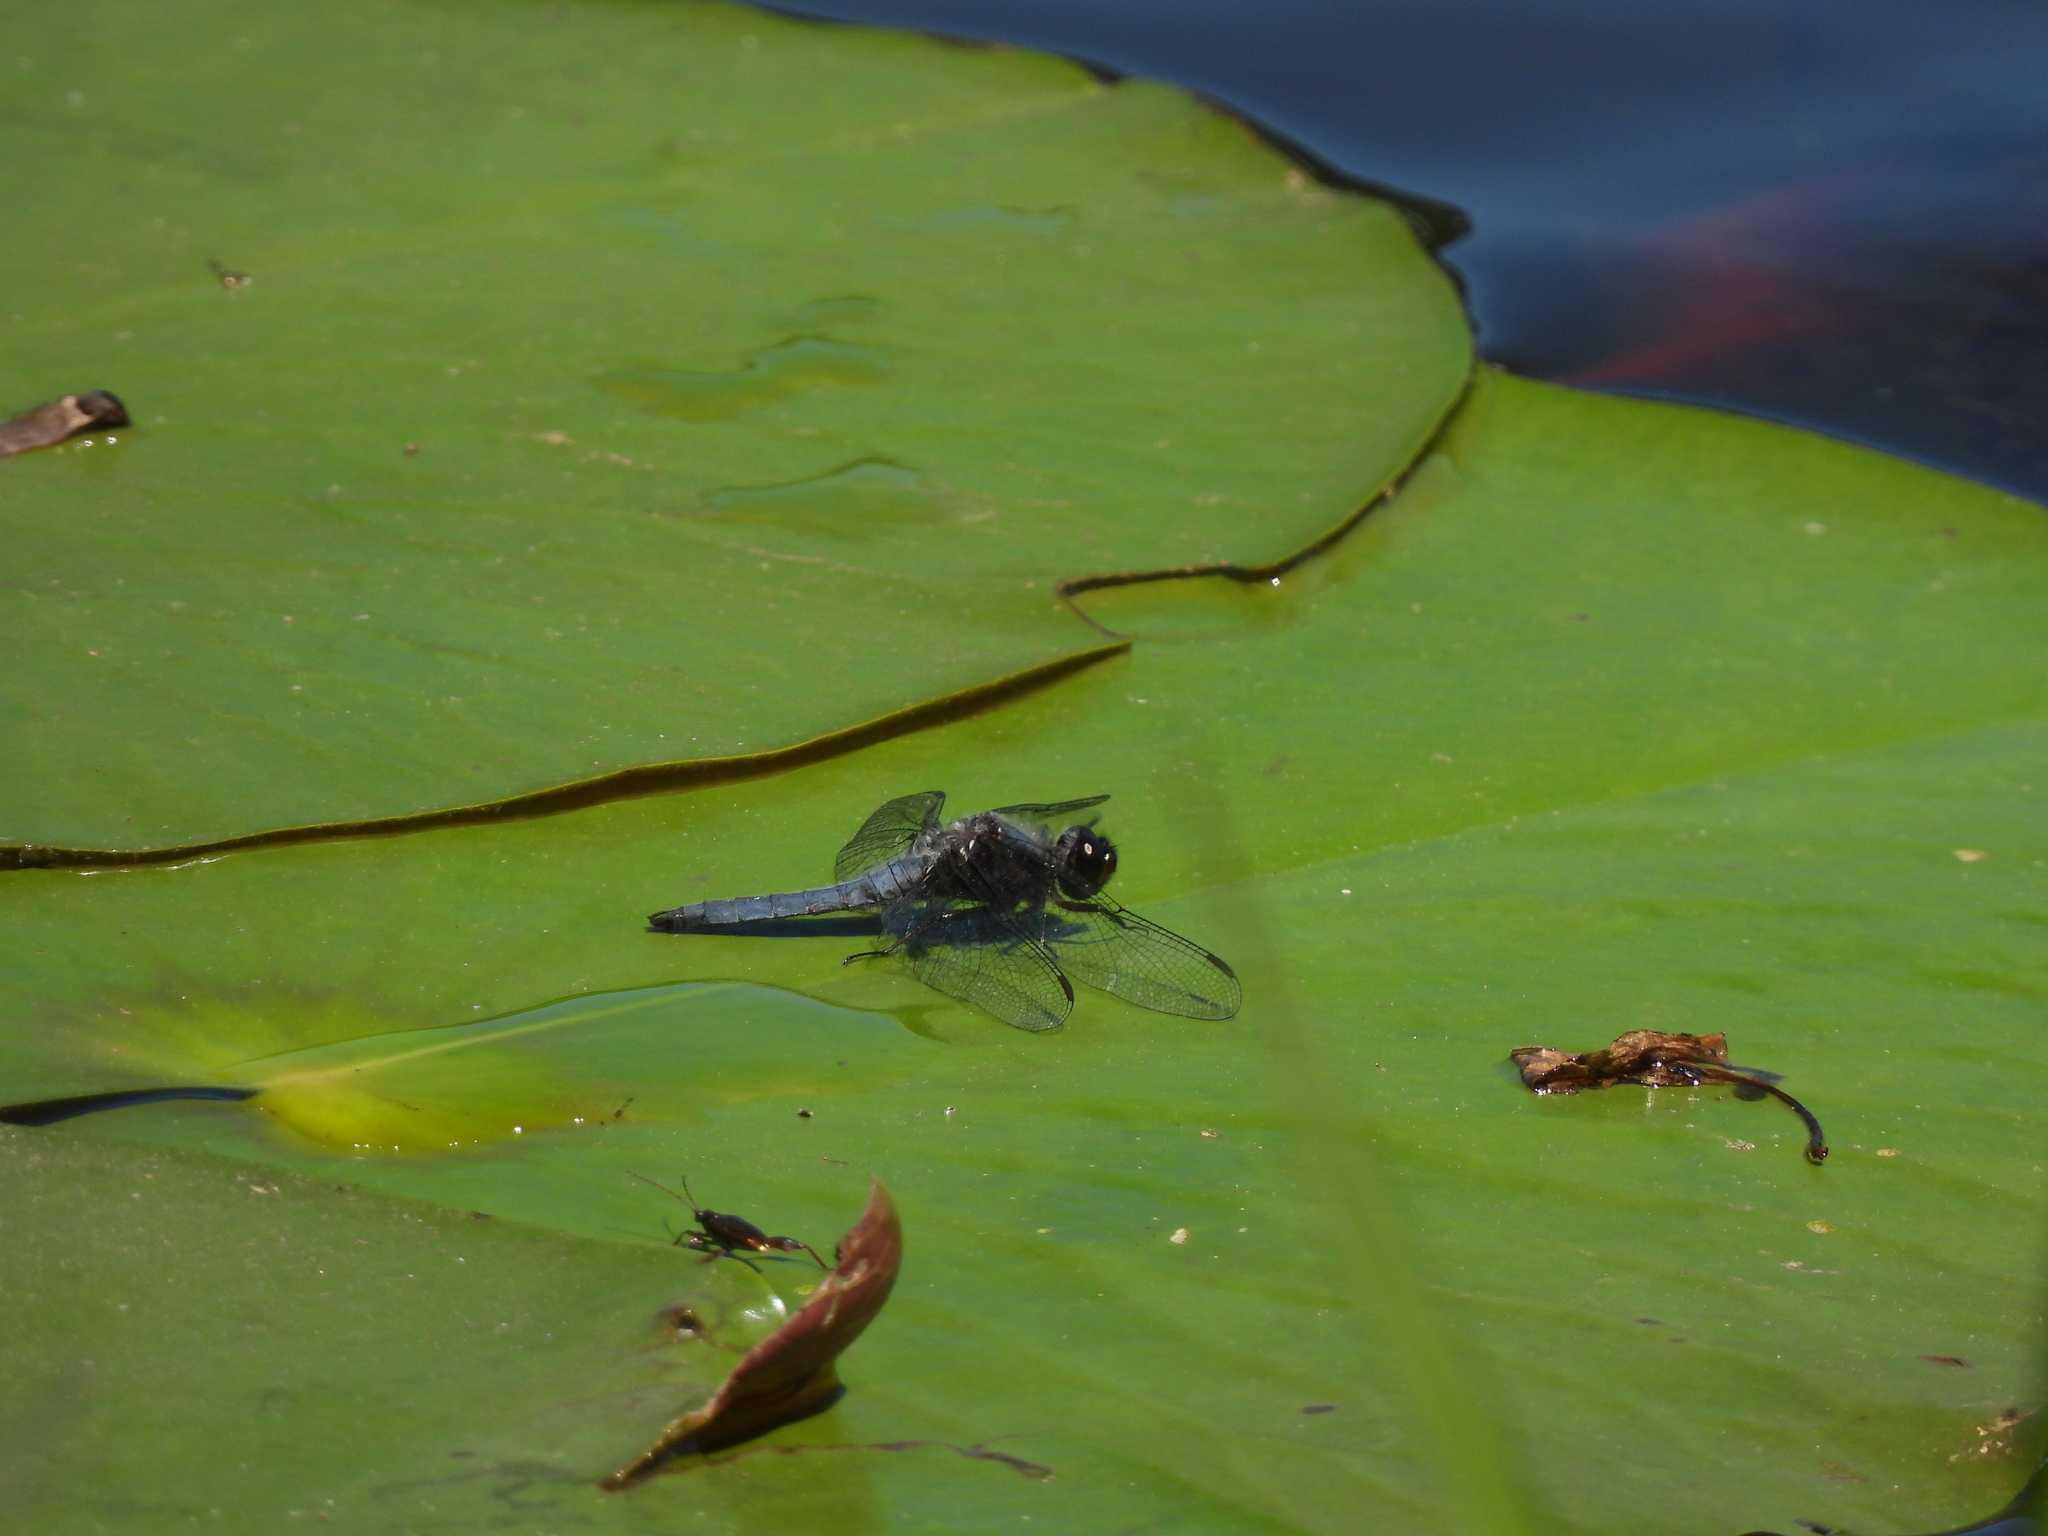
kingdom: Animalia
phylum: Arthropoda
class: Insecta
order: Odonata
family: Libellulidae
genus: Ladona
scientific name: Ladona deplanata
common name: Blue corporal
